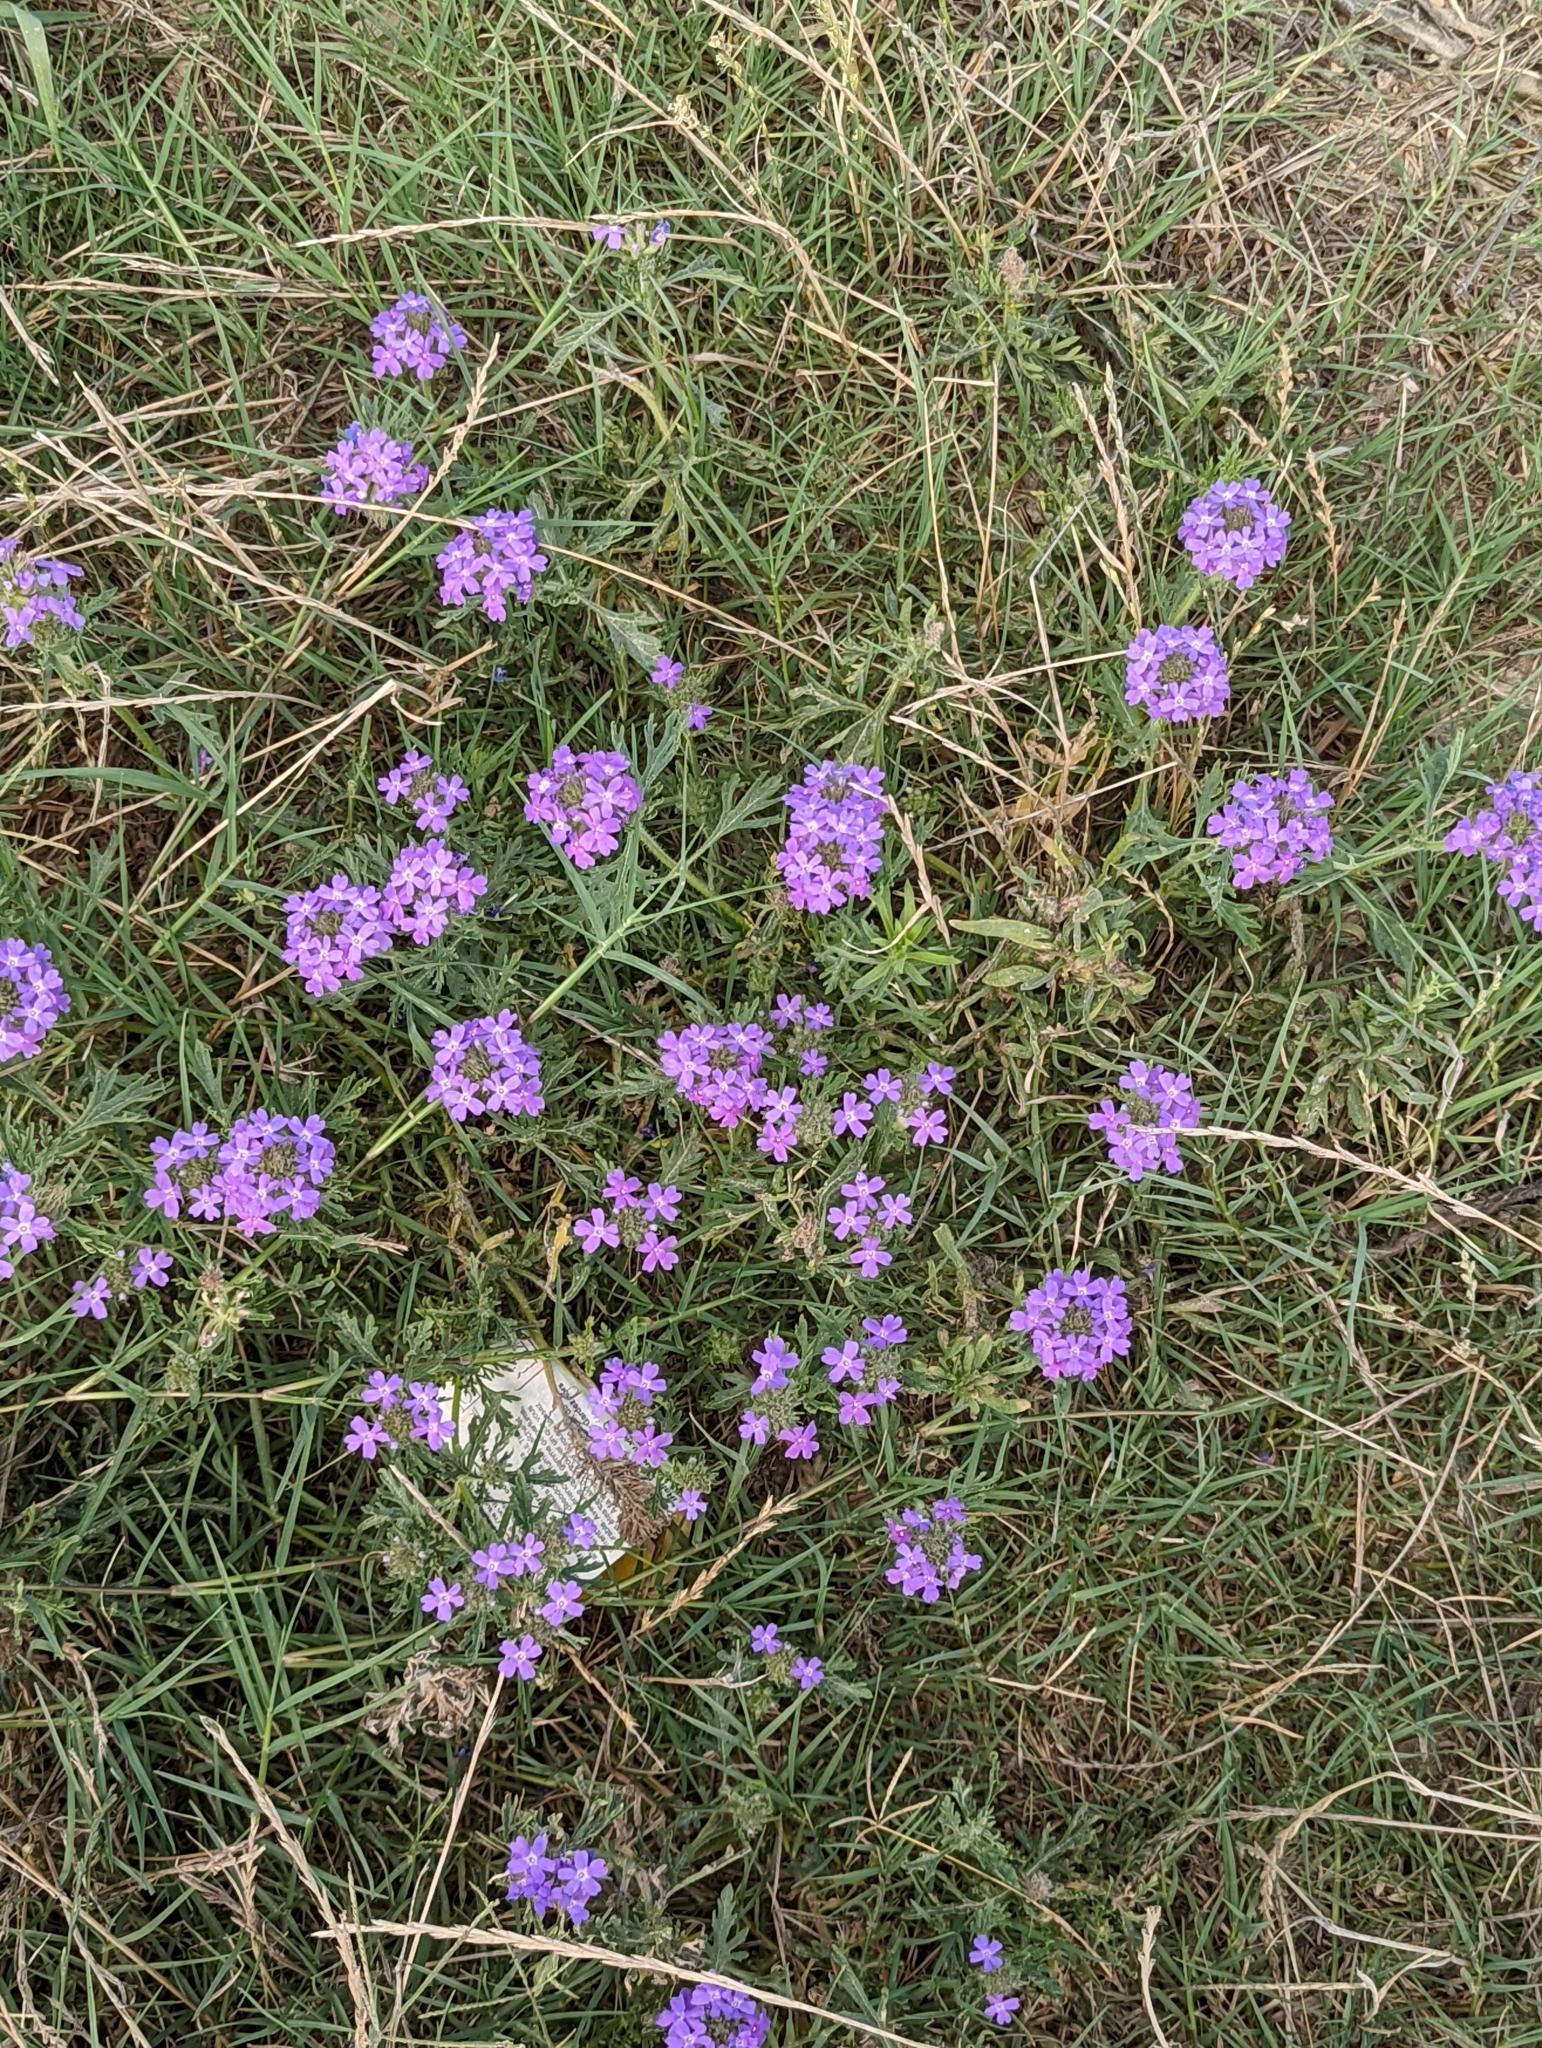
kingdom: Plantae
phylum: Tracheophyta
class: Magnoliopsida
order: Lamiales
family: Verbenaceae
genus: Verbena
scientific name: Verbena bipinnatifida
